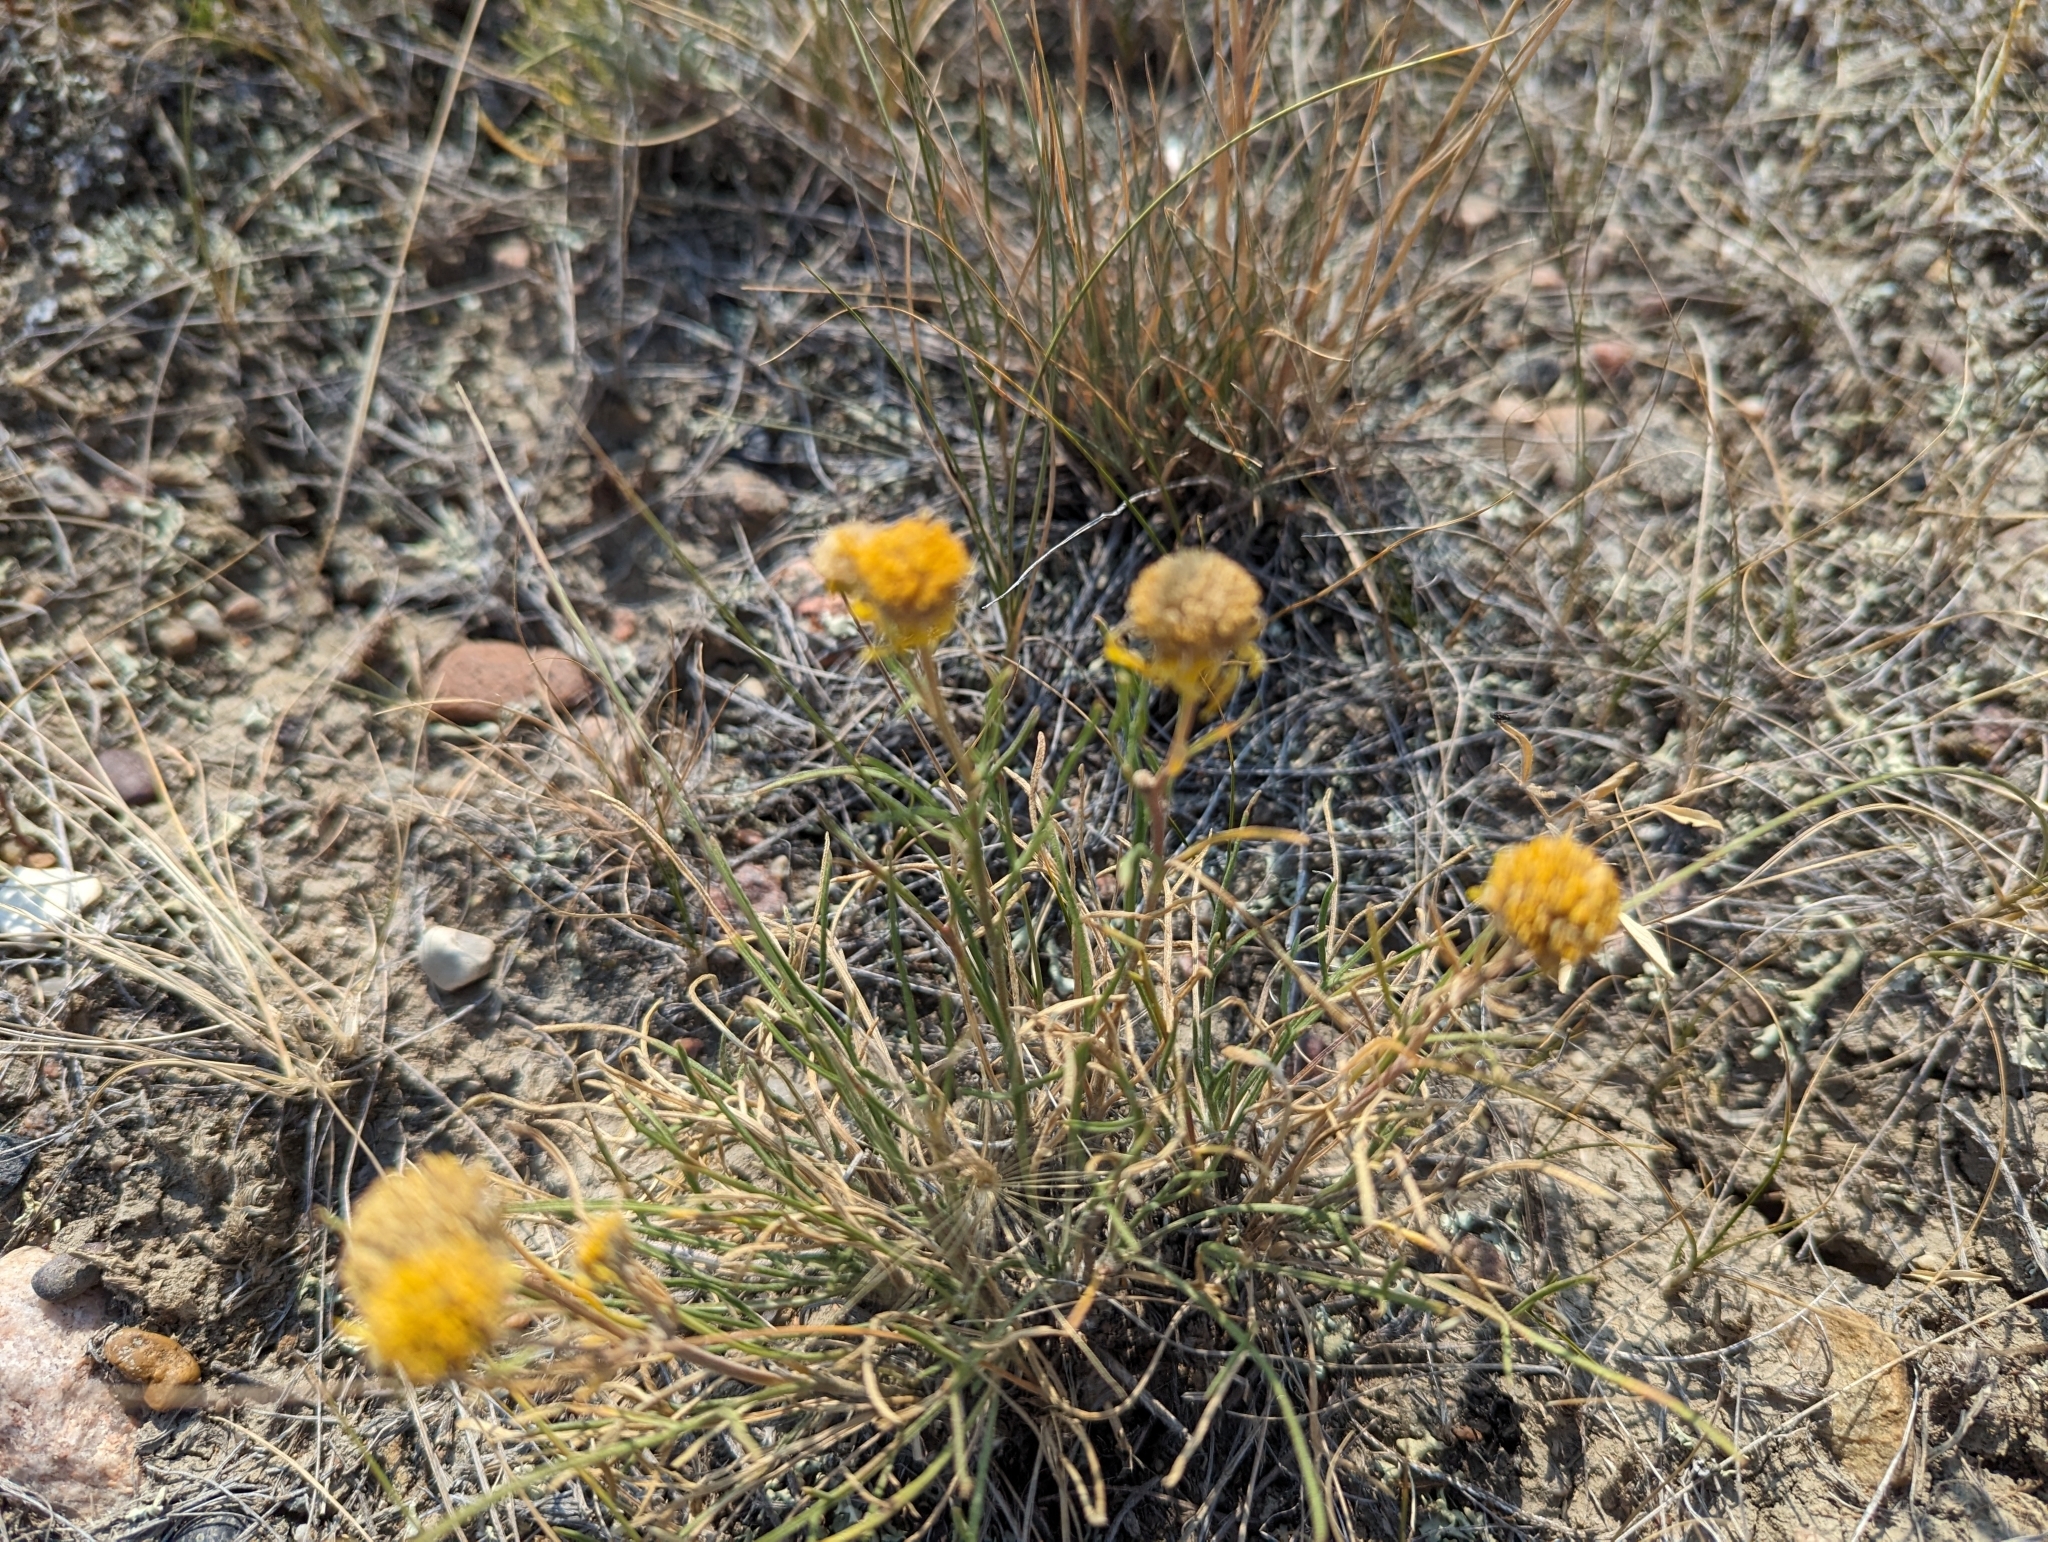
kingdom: Plantae
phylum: Tracheophyta
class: Magnoliopsida
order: Asterales
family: Asteraceae
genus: Hymenoxys
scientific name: Hymenoxys richardsonii
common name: Pingue rubberweed
